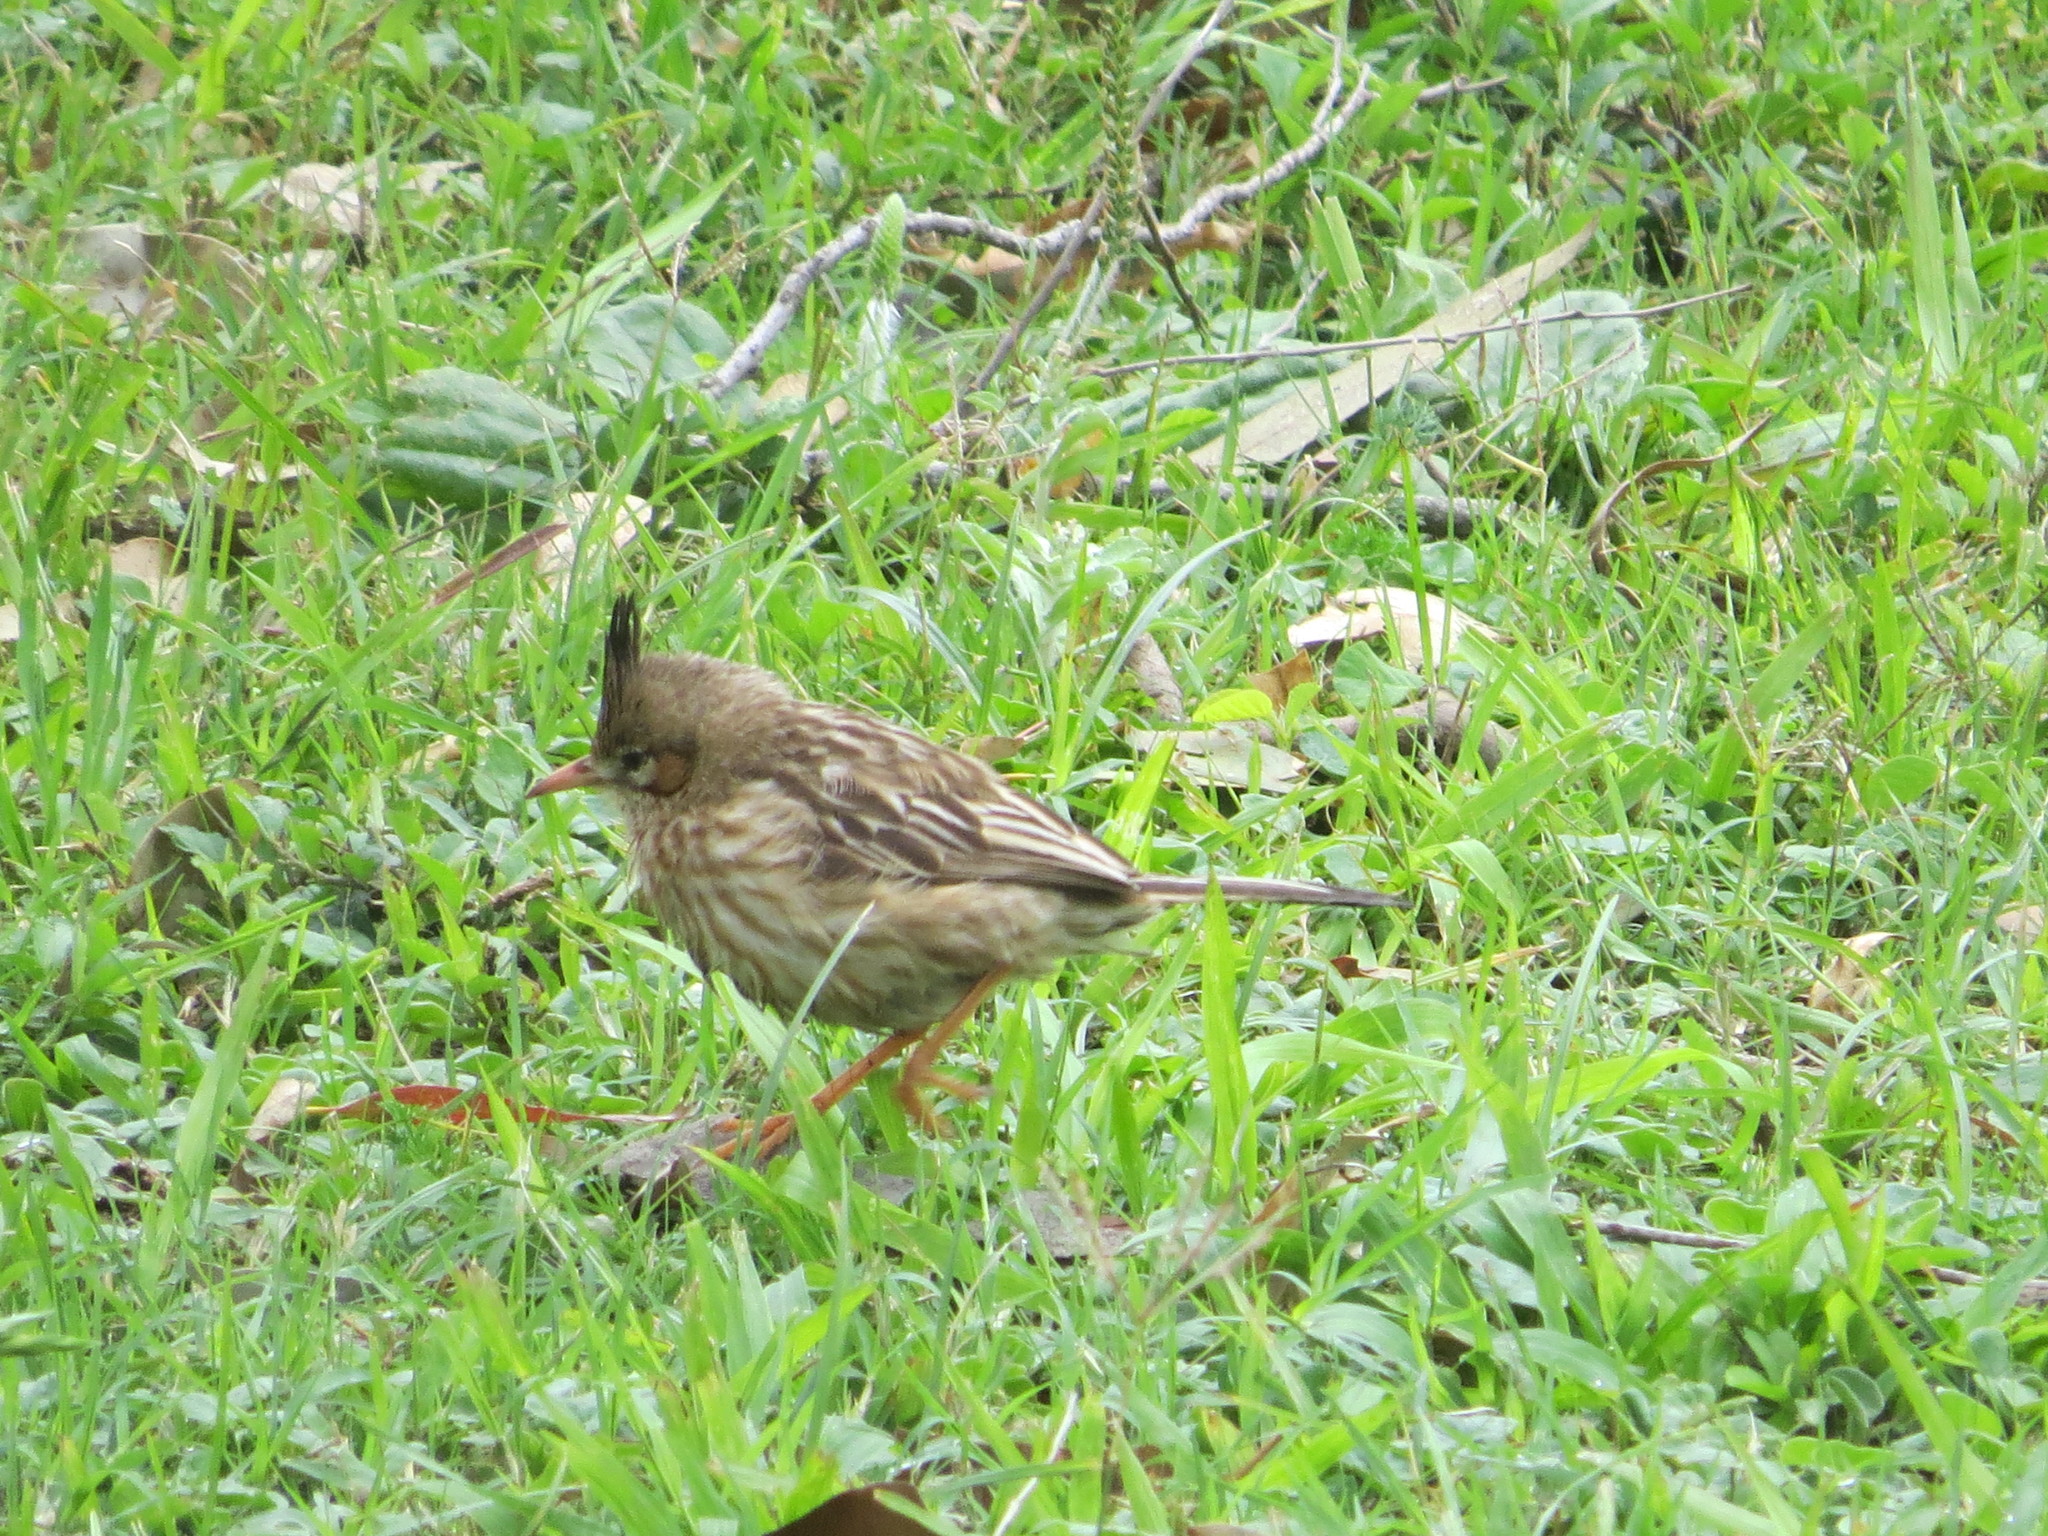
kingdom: Animalia
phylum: Chordata
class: Aves
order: Passeriformes
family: Furnariidae
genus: Coryphistera
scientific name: Coryphistera alaudina
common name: Lark-like brushrunner
